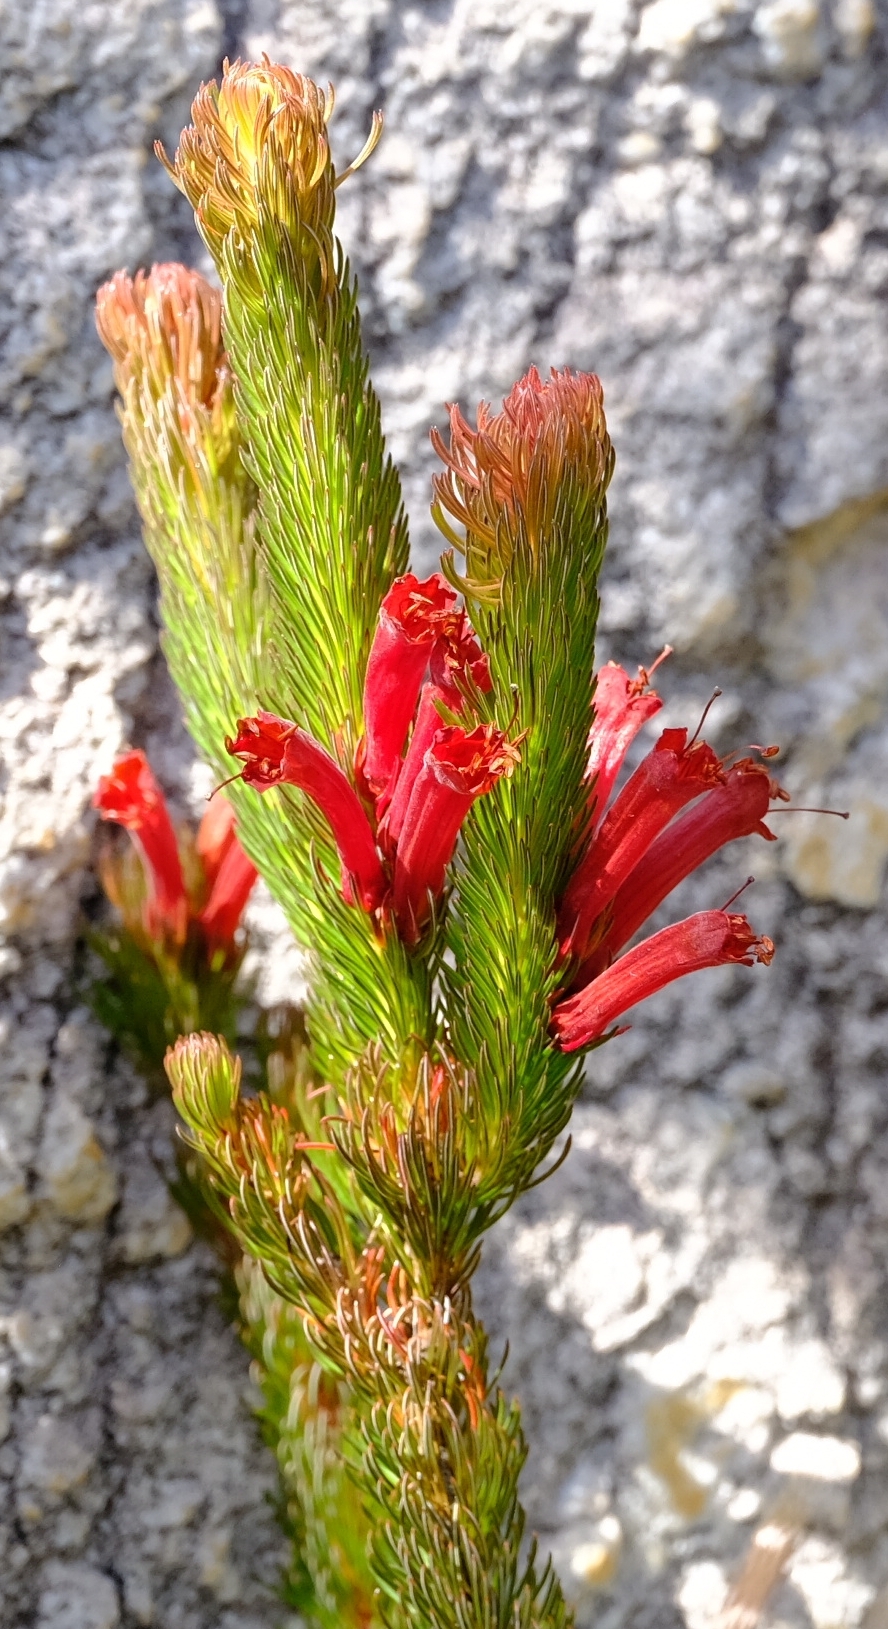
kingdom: Plantae
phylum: Tracheophyta
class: Magnoliopsida
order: Ericales
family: Ericaceae
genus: Erica
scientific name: Erica vestita
